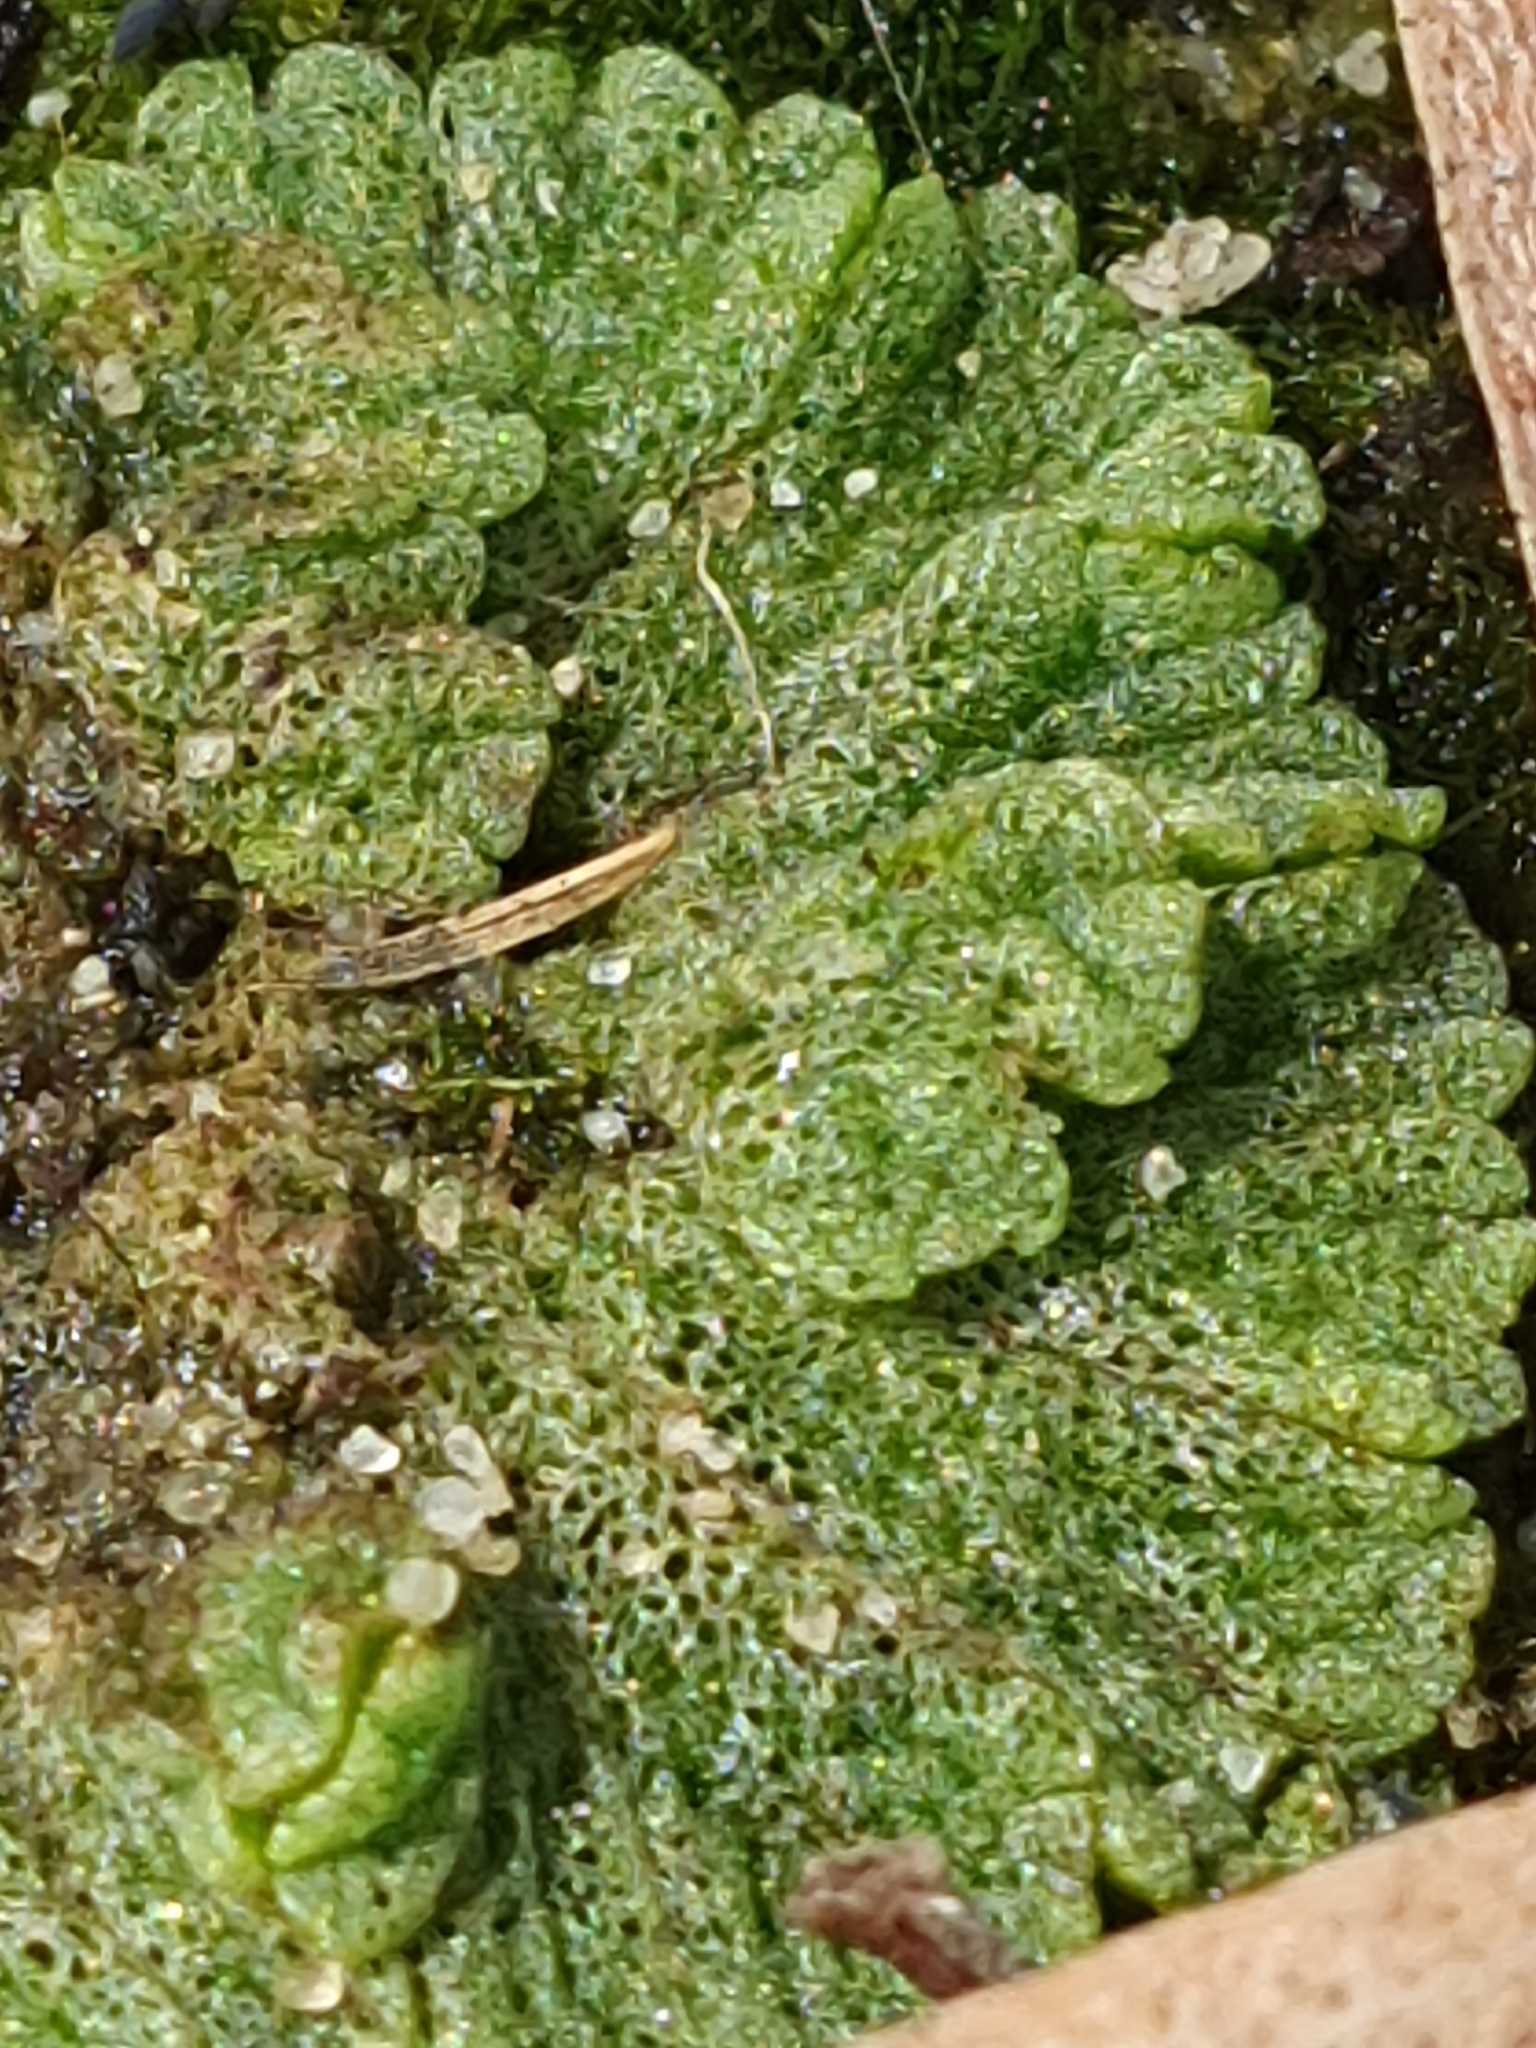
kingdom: Plantae
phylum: Marchantiophyta
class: Marchantiopsida
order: Marchantiales
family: Ricciaceae
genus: Riccia
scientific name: Riccia cavernosa
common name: Cavernous crystalwort
